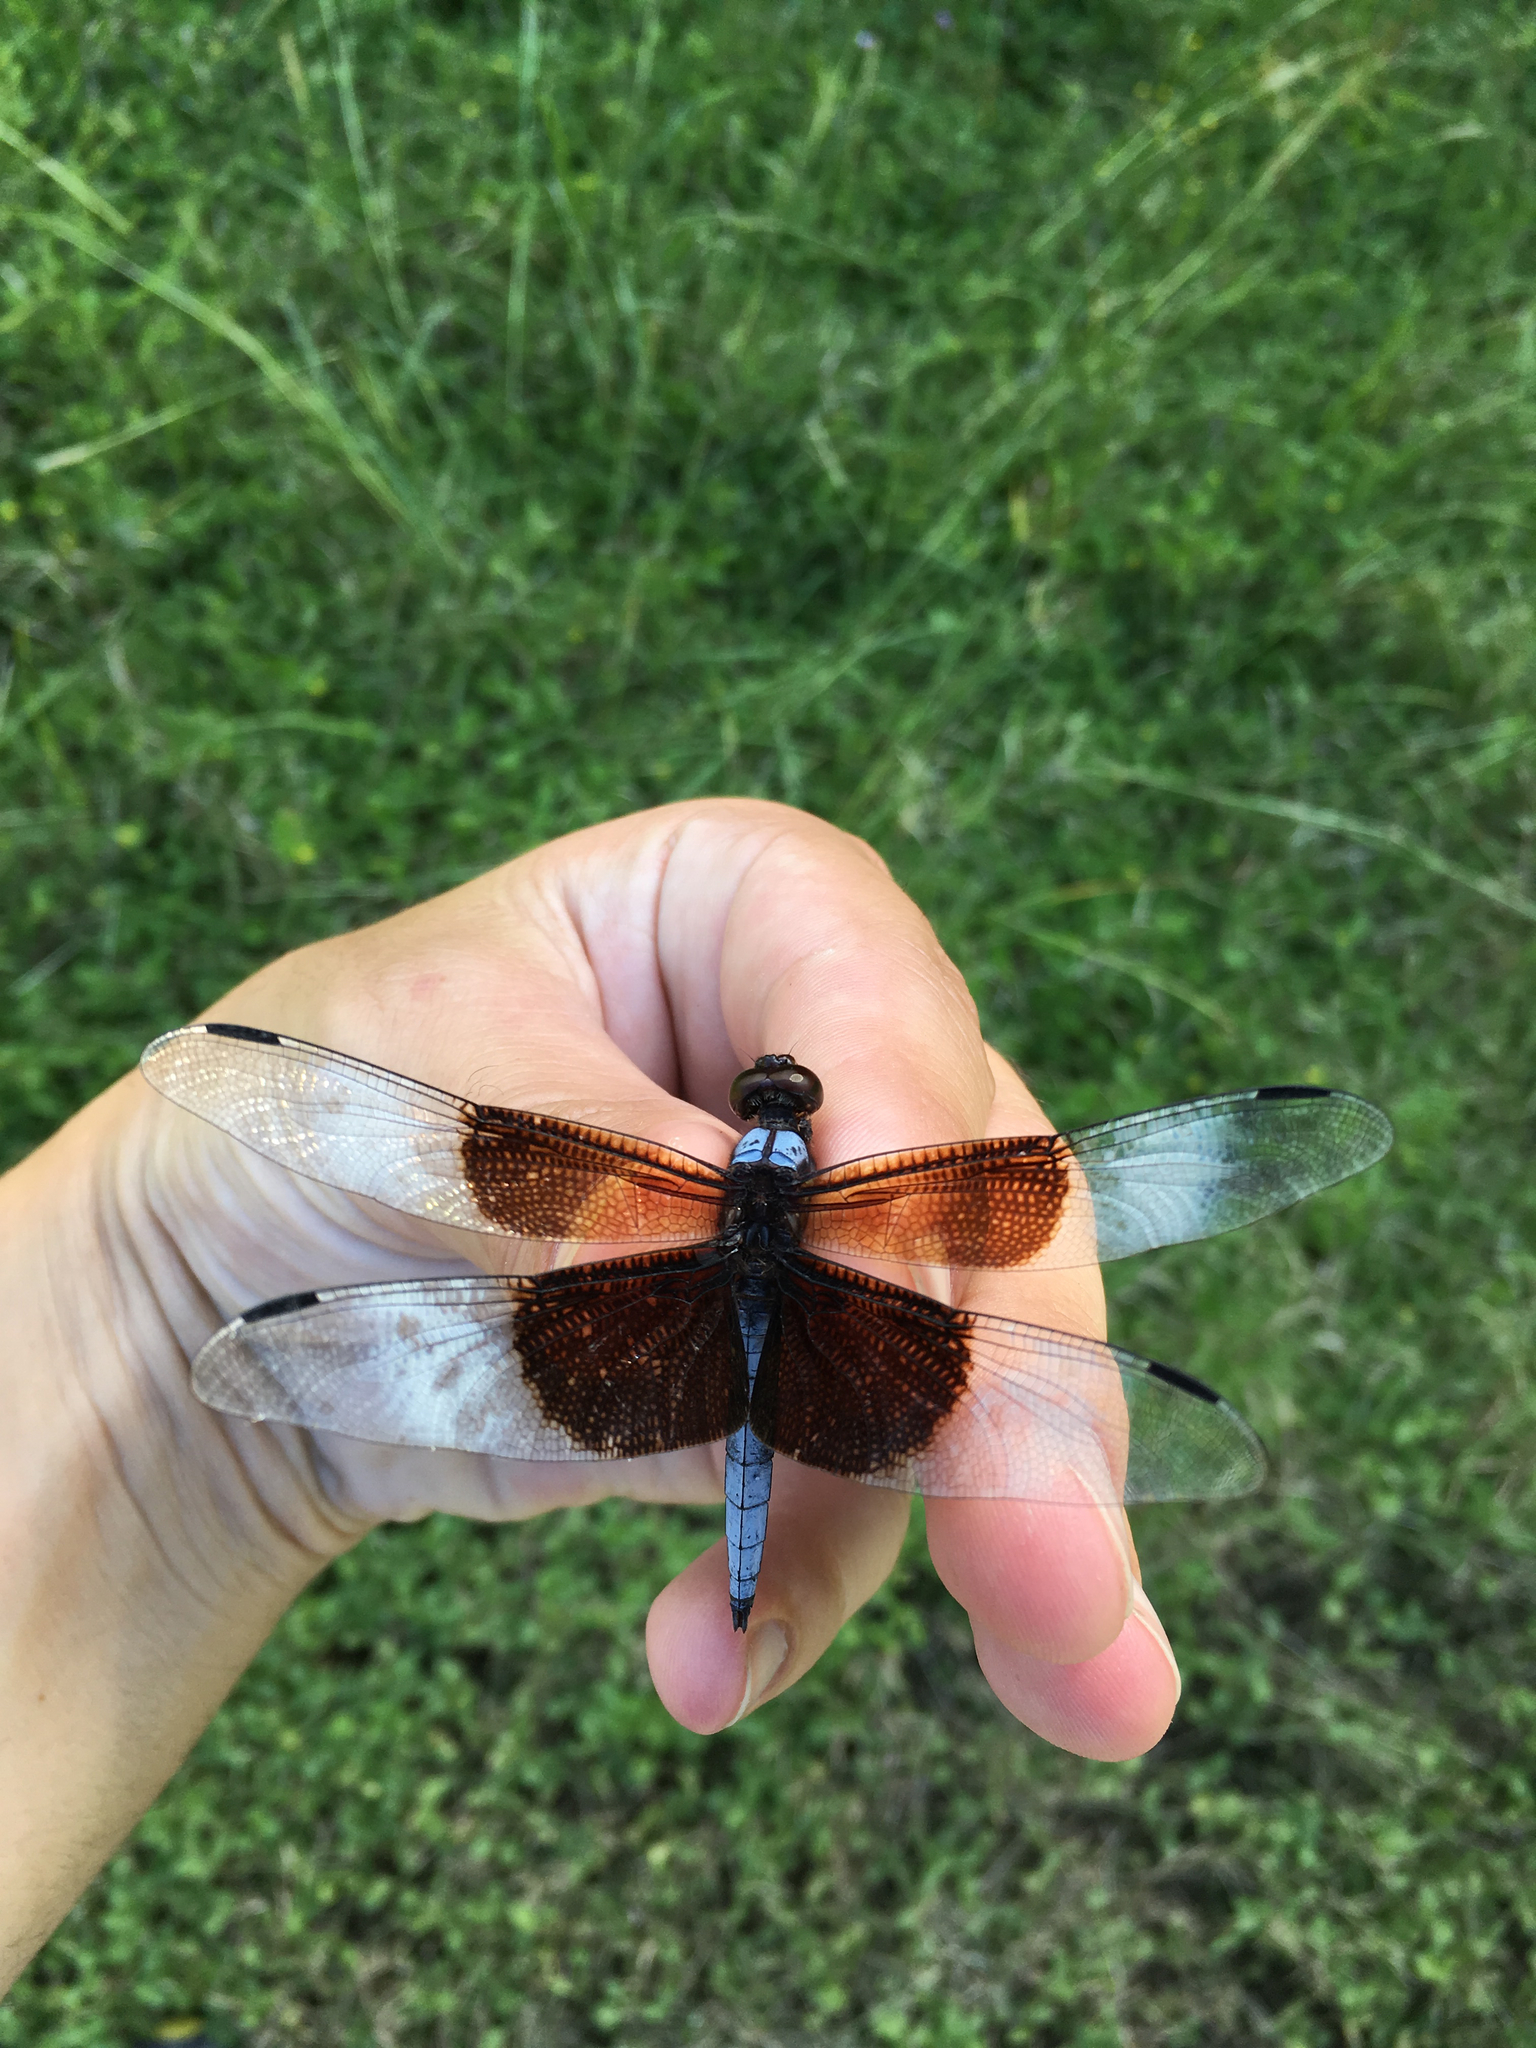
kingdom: Animalia
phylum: Arthropoda
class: Insecta
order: Odonata
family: Libellulidae
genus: Libellula
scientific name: Libellula luctuosa
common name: Widow skimmer
